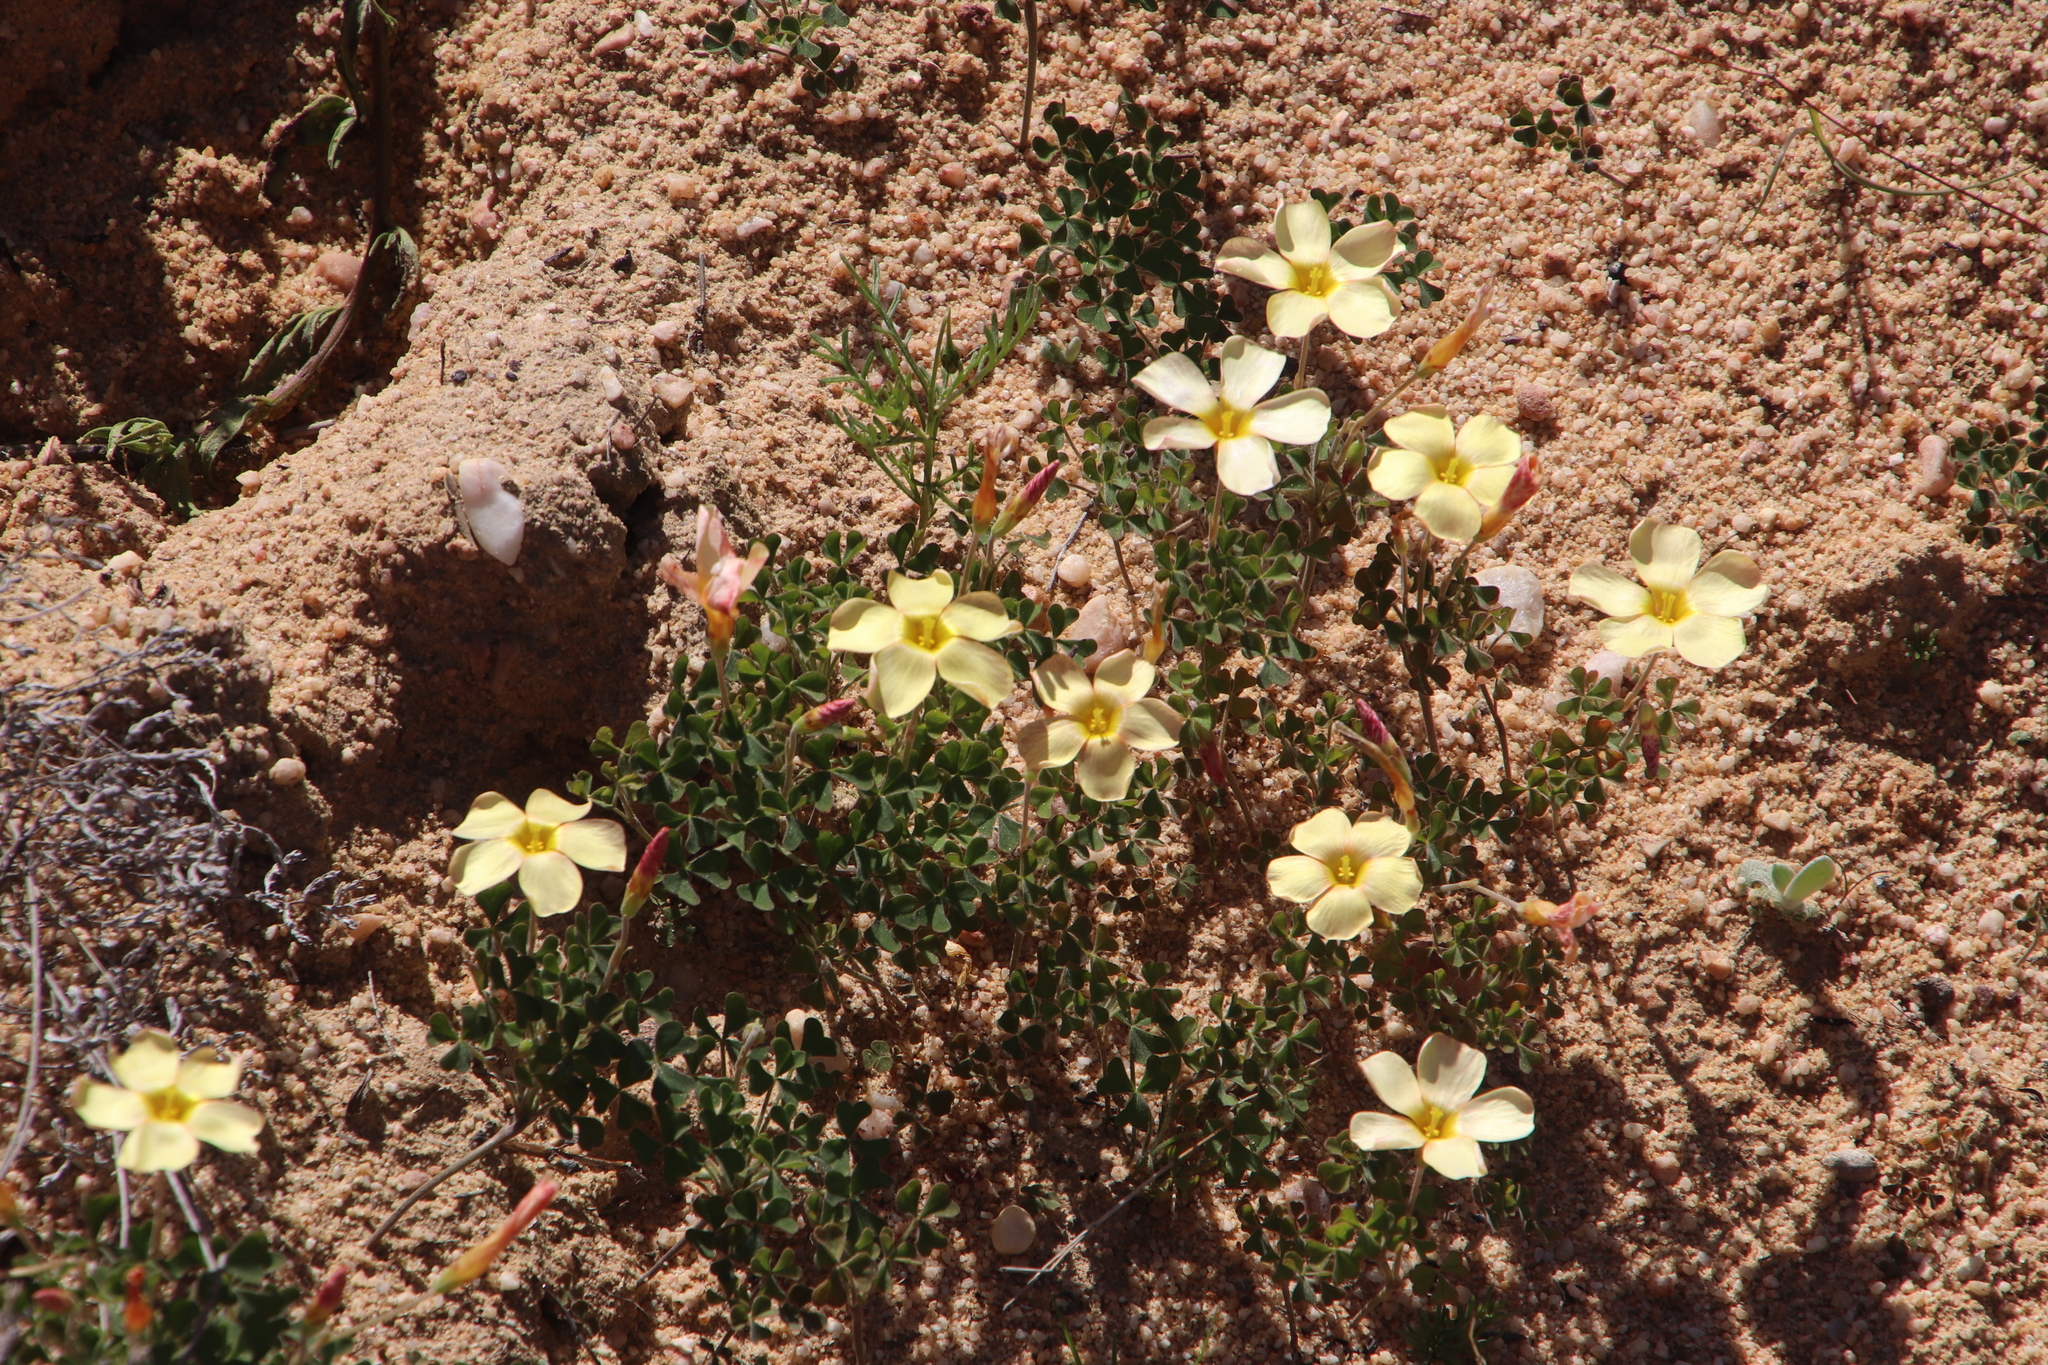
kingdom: Plantae
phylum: Tracheophyta
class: Magnoliopsida
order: Oxalidales
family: Oxalidaceae
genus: Oxalis
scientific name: Oxalis obtusa
